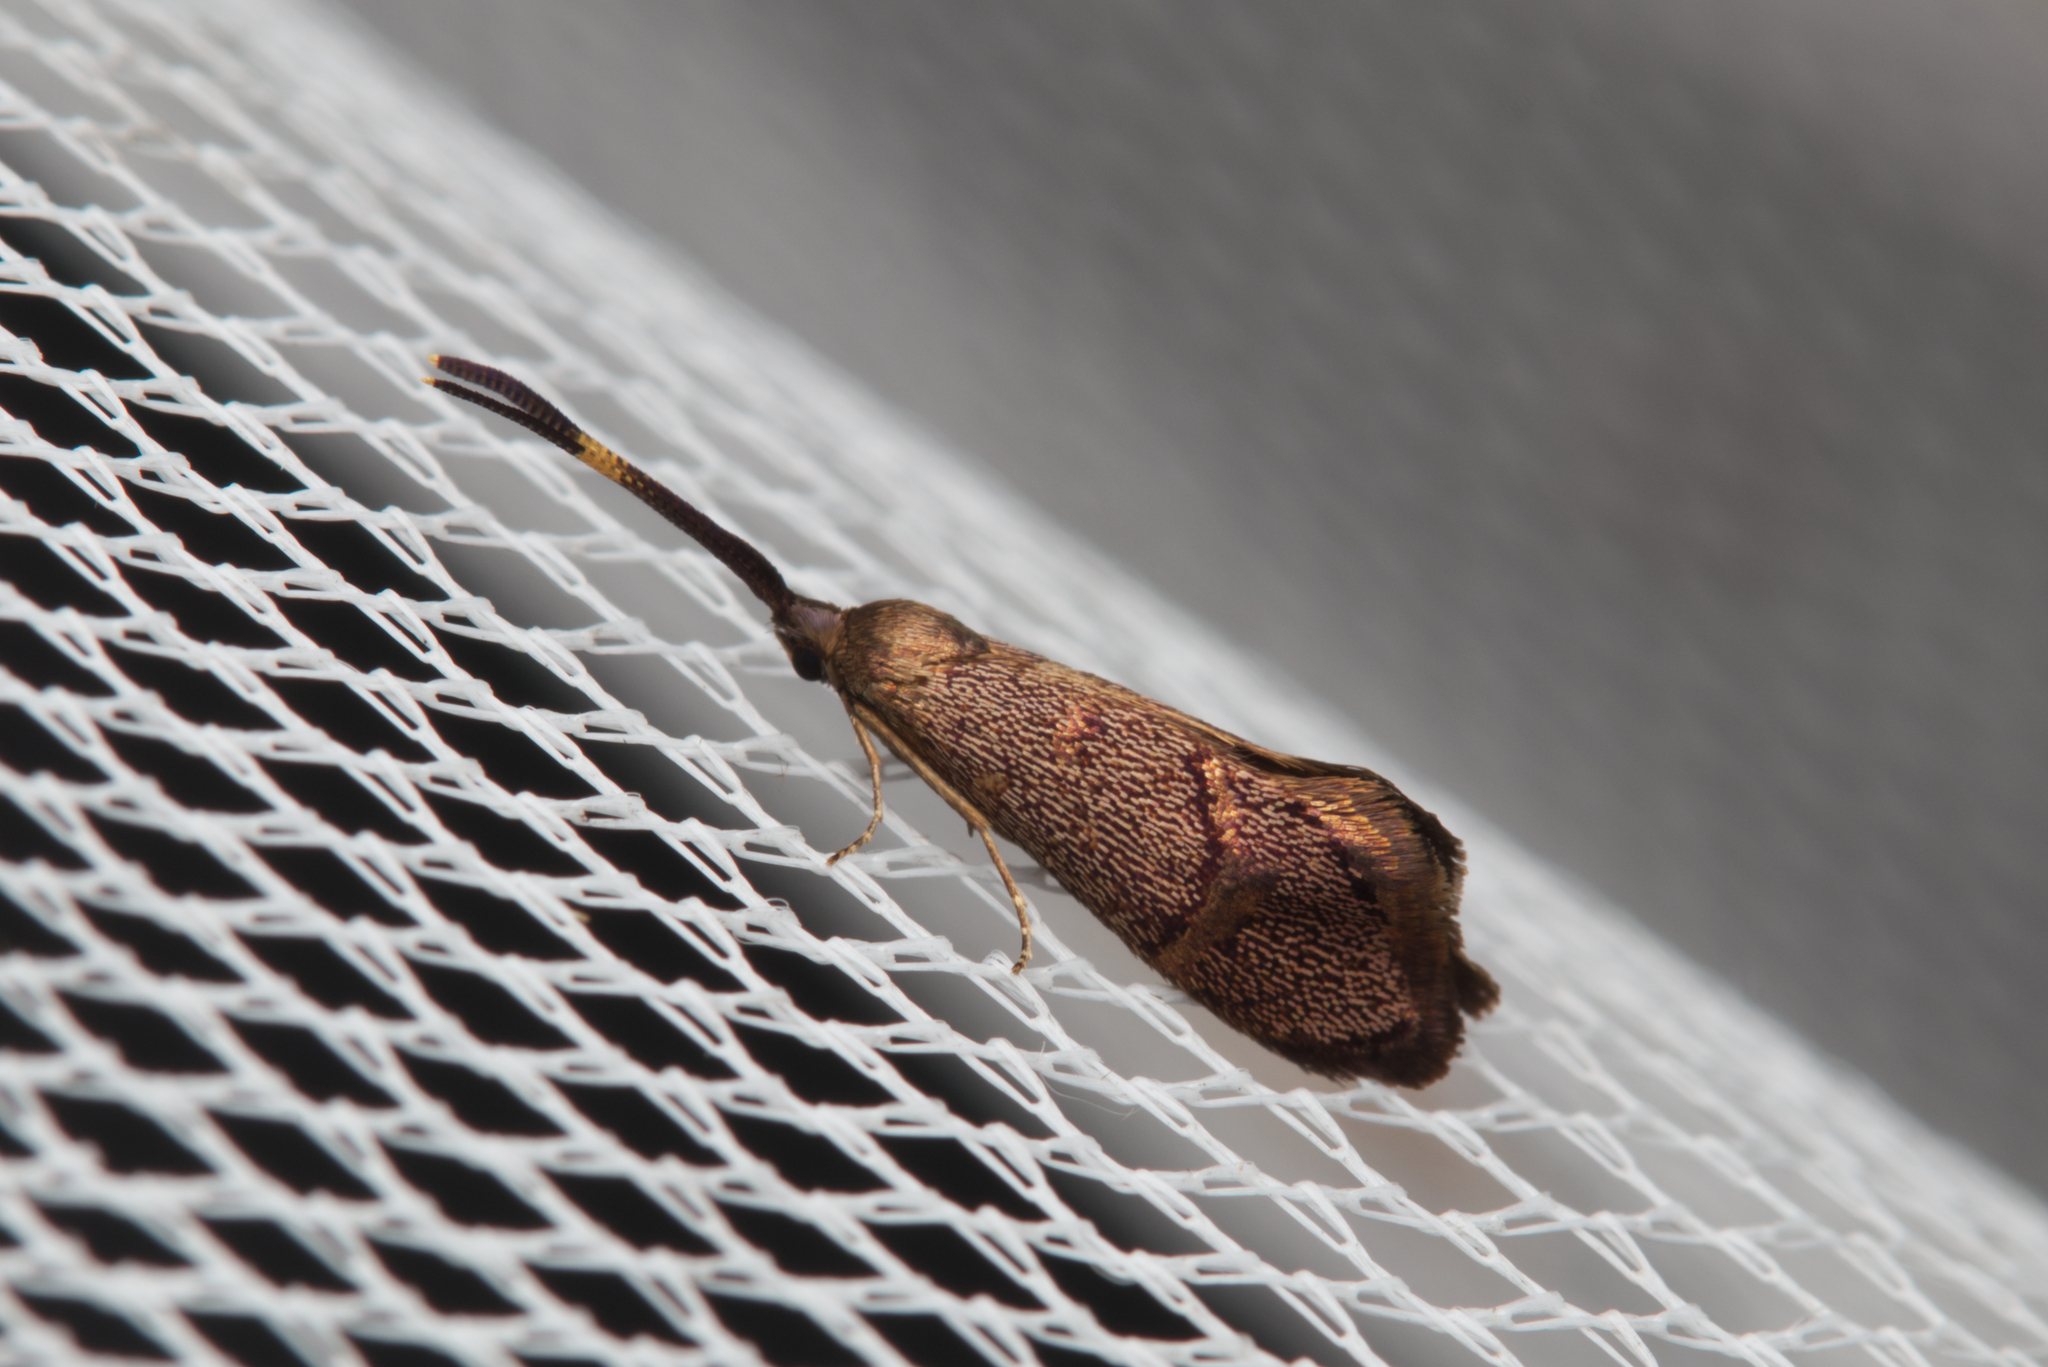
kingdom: Animalia
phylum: Arthropoda
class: Insecta
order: Lepidoptera
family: Psychidae
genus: Piestoceros
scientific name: Piestoceros conjunctella
